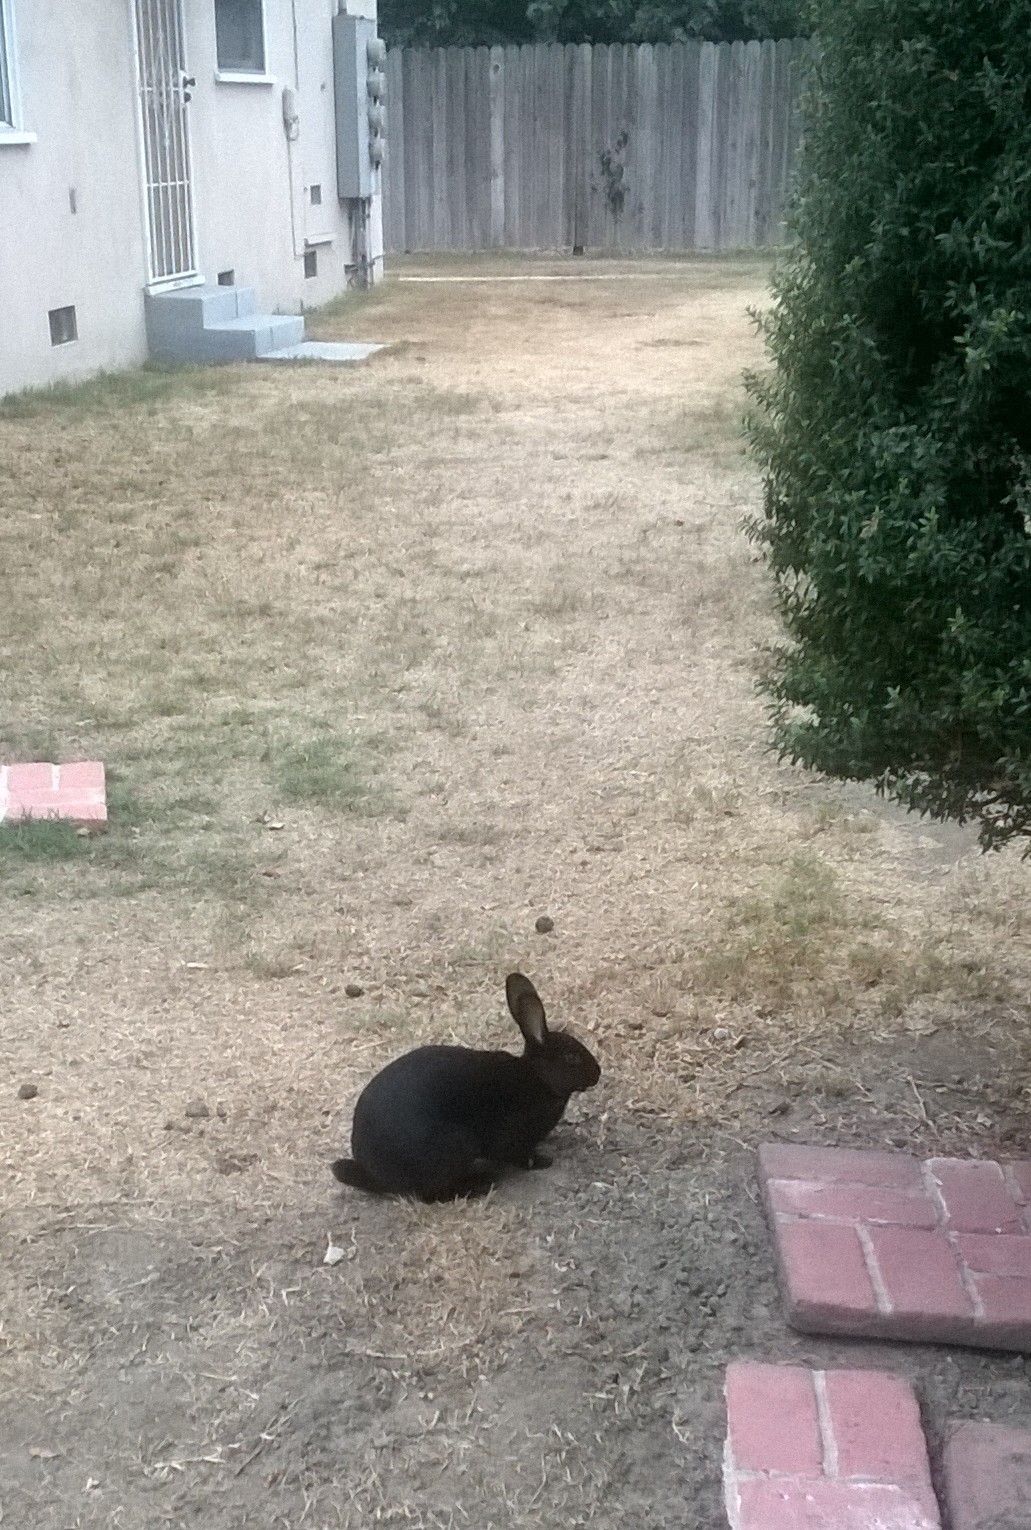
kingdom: Animalia
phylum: Chordata
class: Mammalia
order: Lagomorpha
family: Leporidae
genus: Oryctolagus
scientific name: Oryctolagus cuniculus
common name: European rabbit
